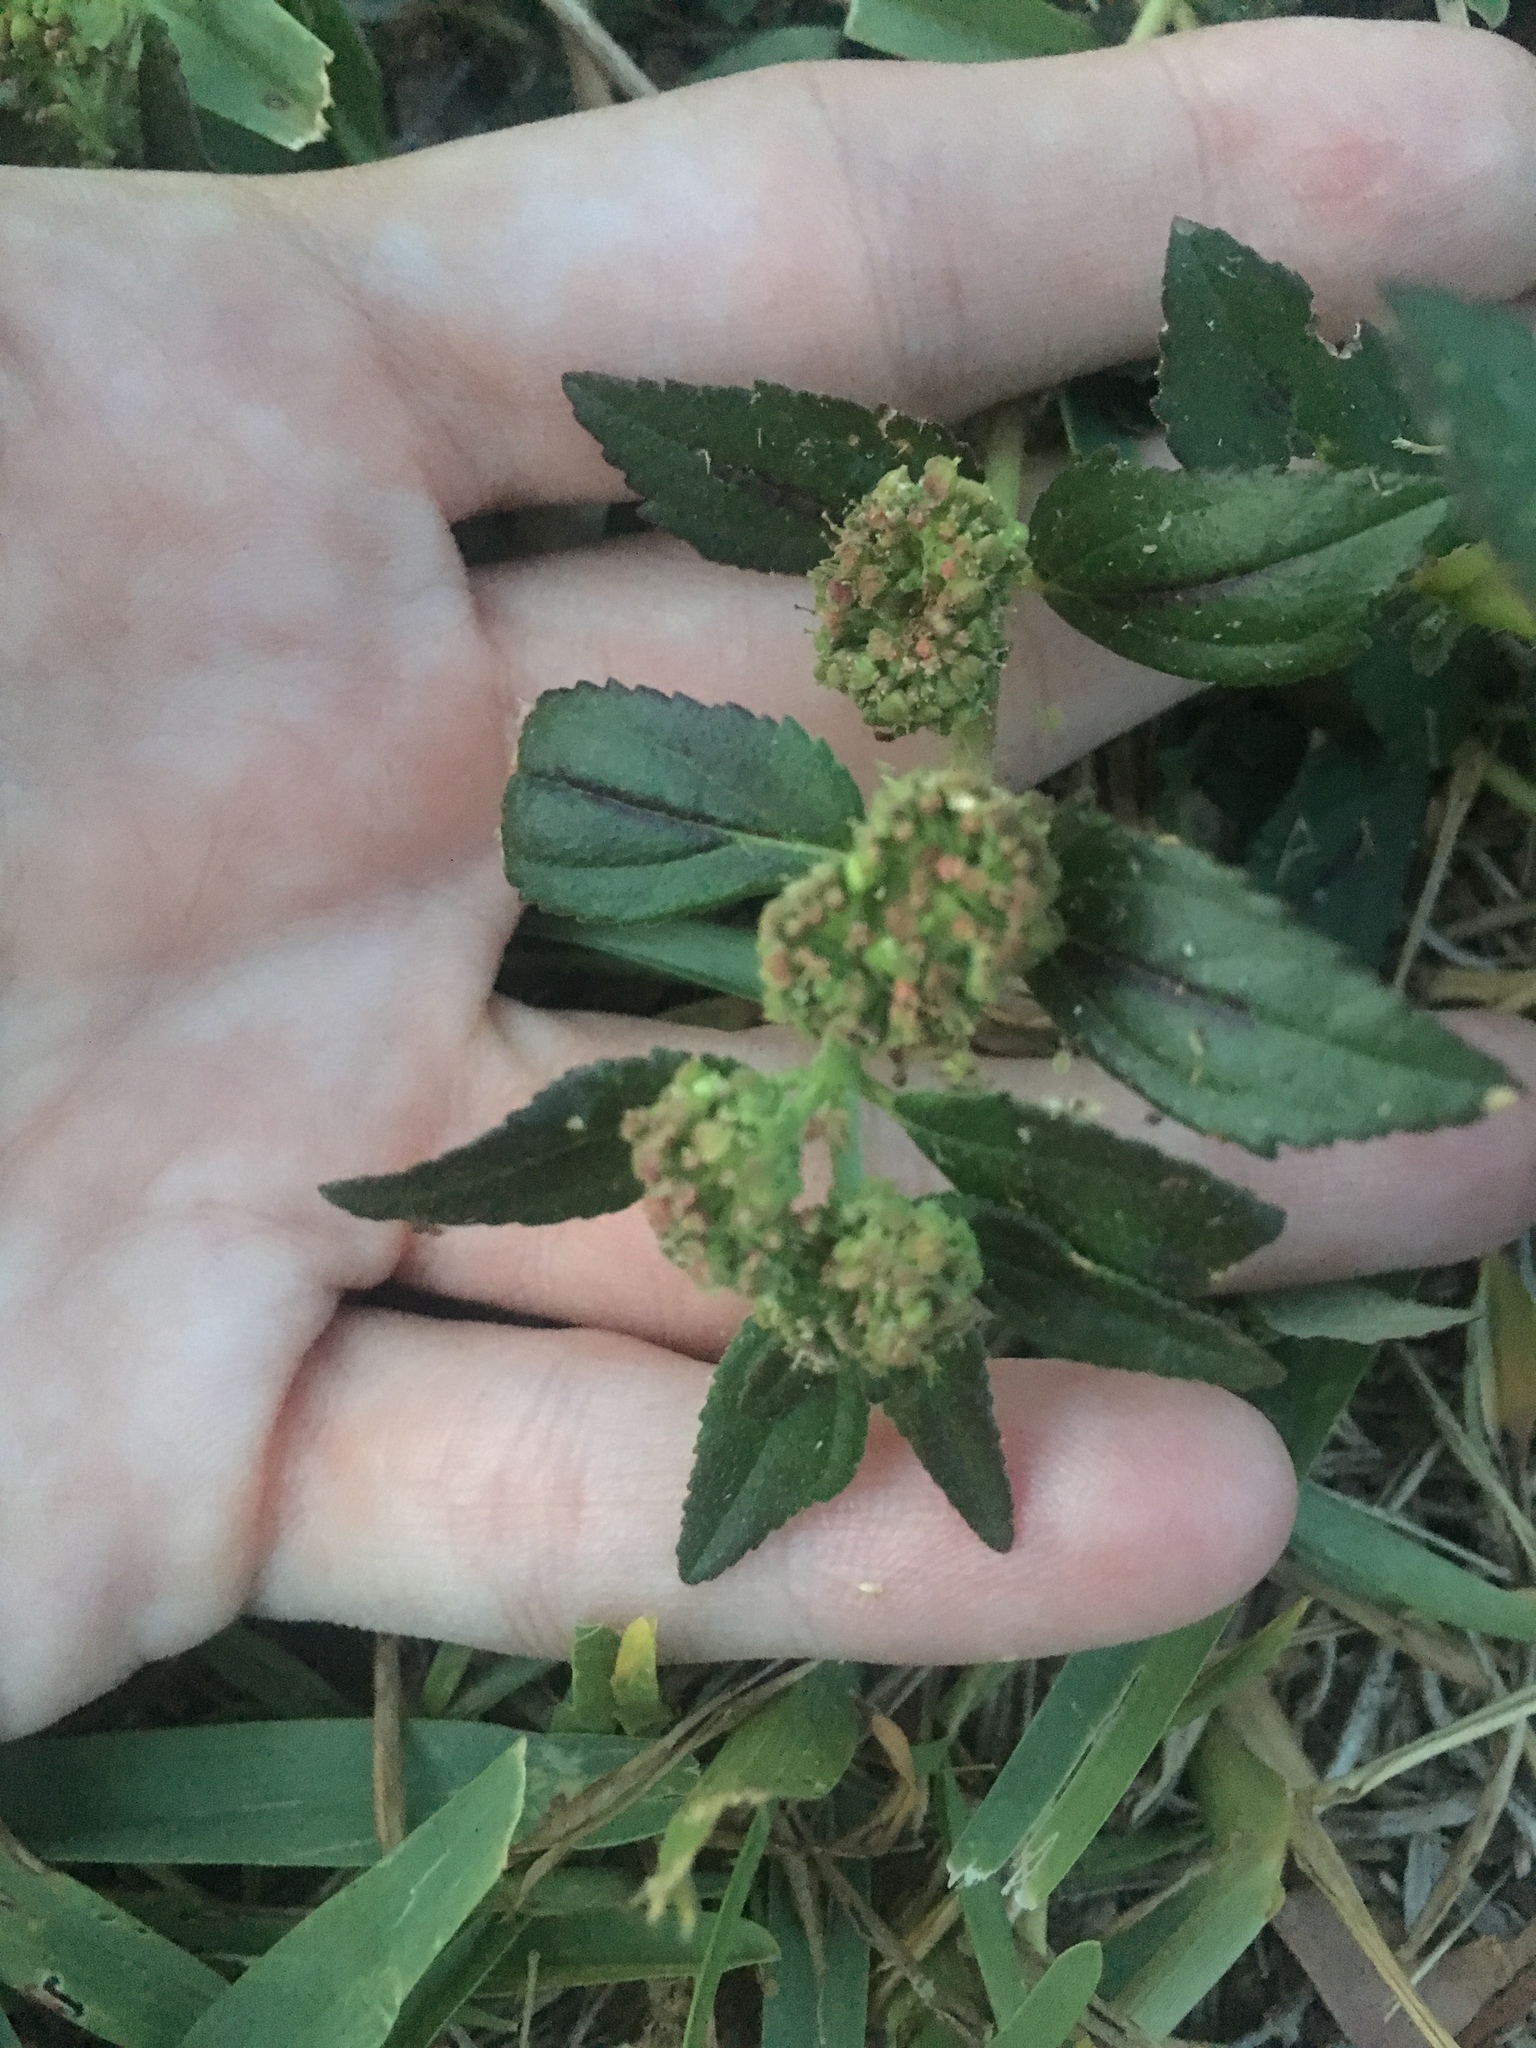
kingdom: Plantae
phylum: Tracheophyta
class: Magnoliopsida
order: Malpighiales
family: Euphorbiaceae
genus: Euphorbia
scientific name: Euphorbia hirta
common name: Pillpod sandmat
